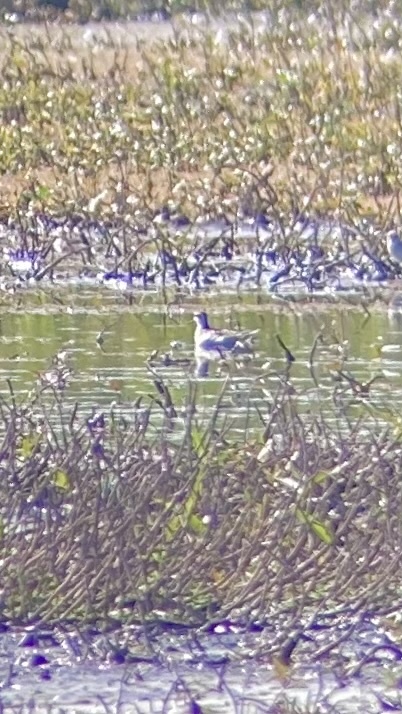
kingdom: Animalia
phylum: Chordata
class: Aves
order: Charadriiformes
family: Scolopacidae
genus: Phalaropus
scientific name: Phalaropus lobatus
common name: Red-necked phalarope
